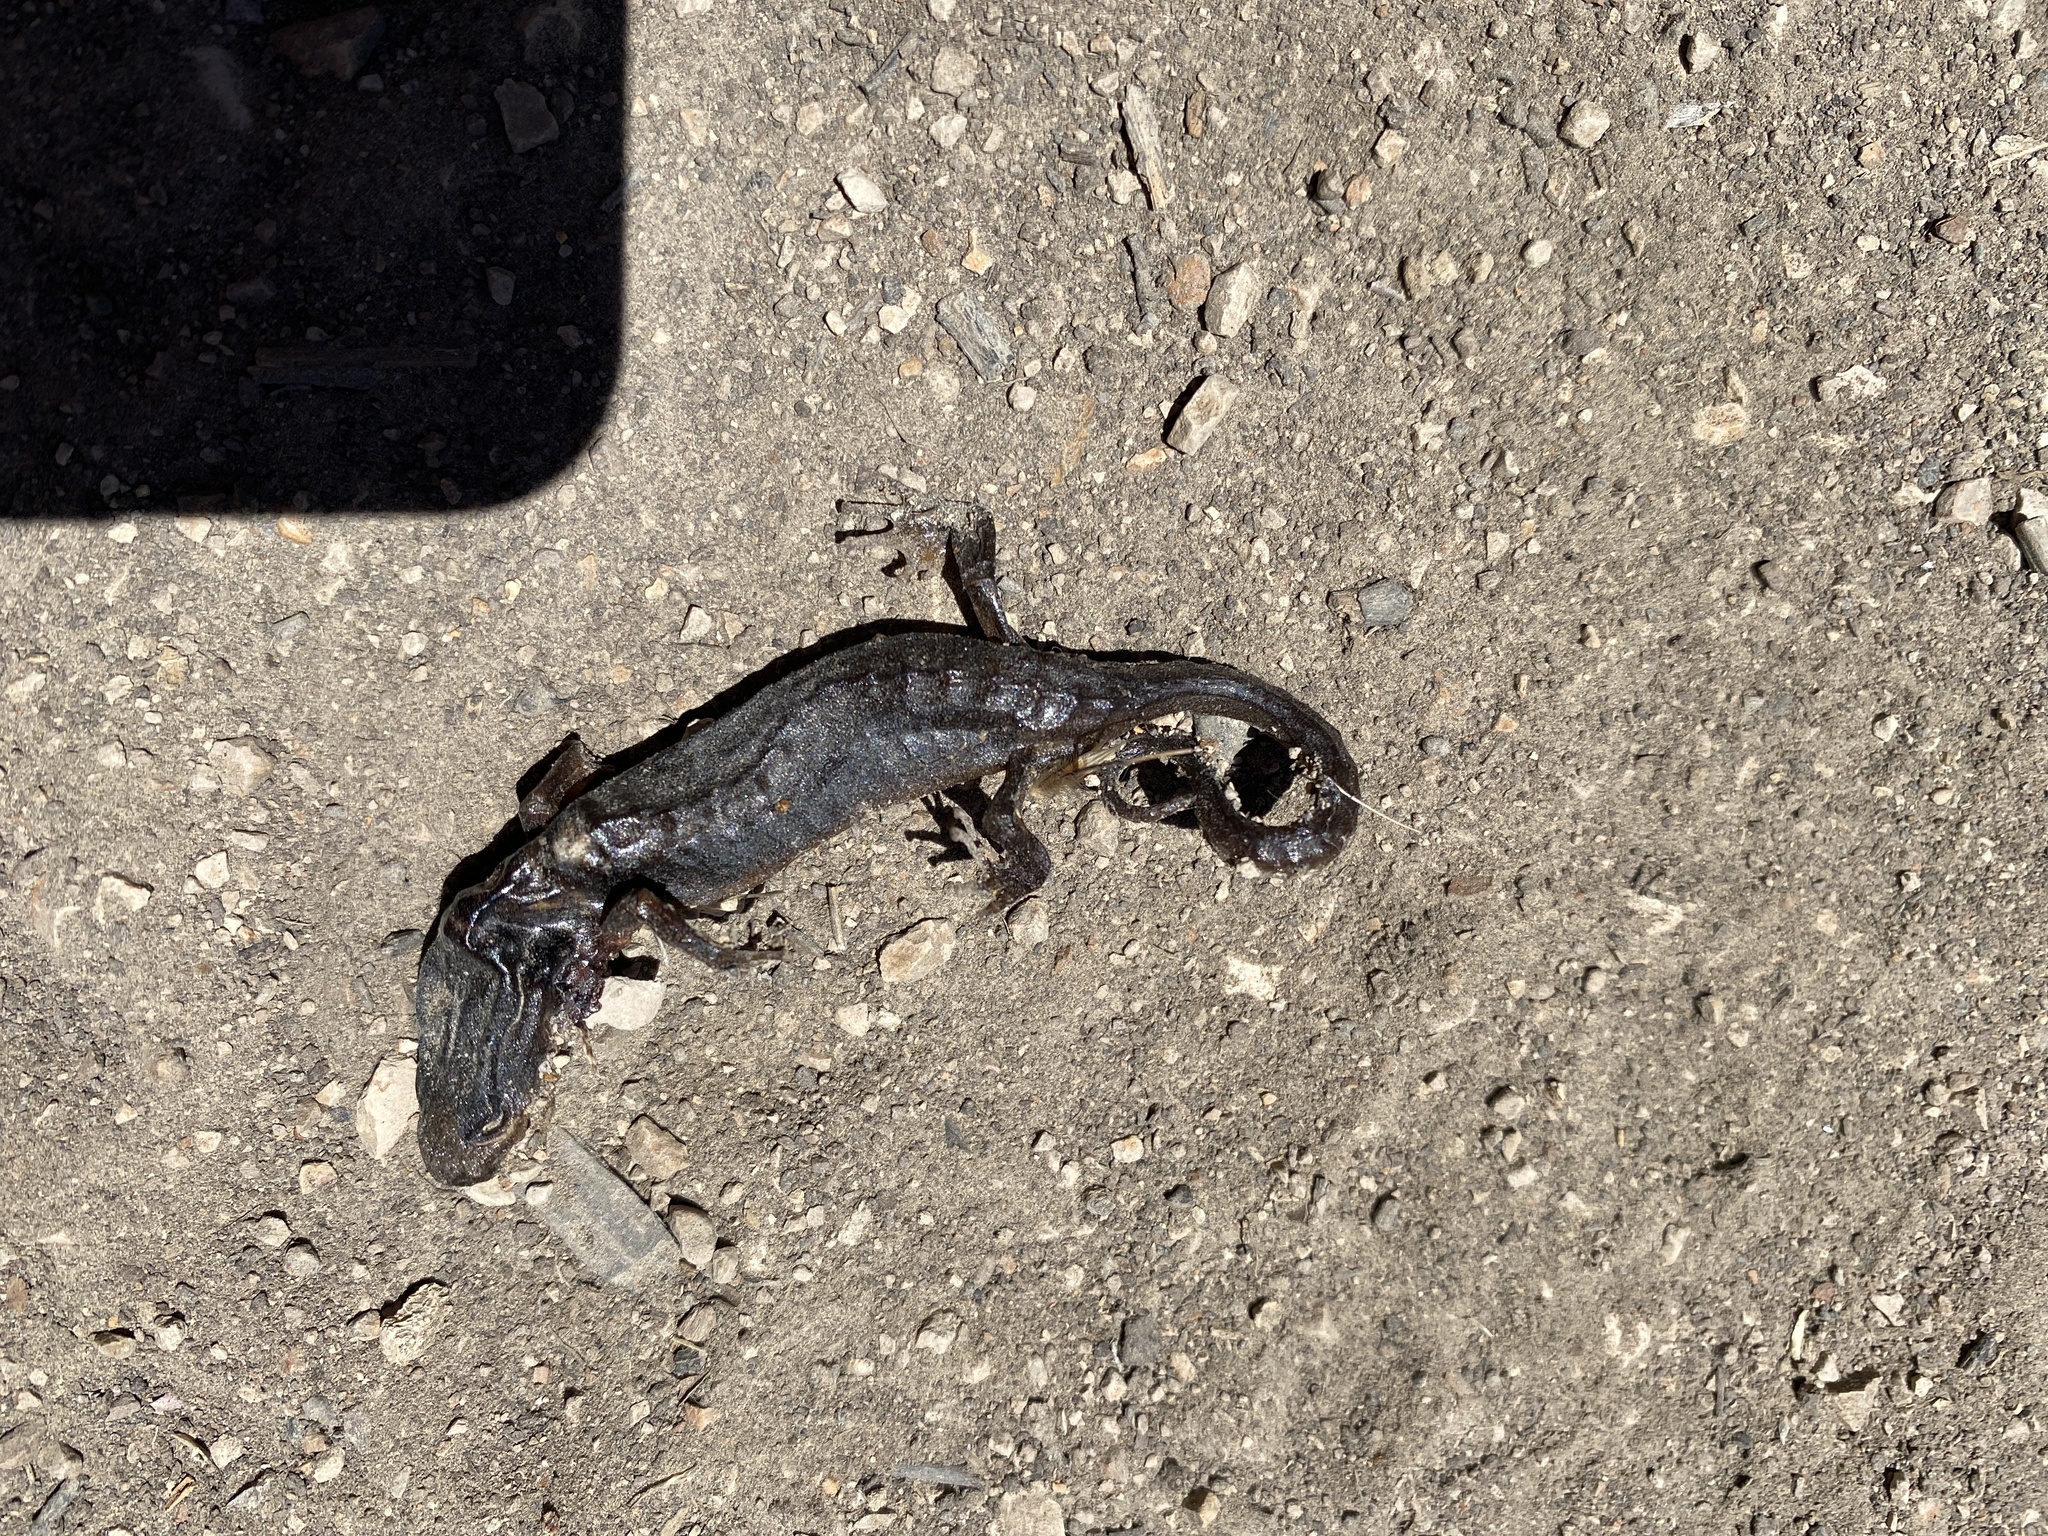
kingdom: Animalia
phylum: Chordata
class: Amphibia
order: Caudata
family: Plethodontidae
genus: Aneides
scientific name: Aneides lugubris
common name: Arboreal salamander
